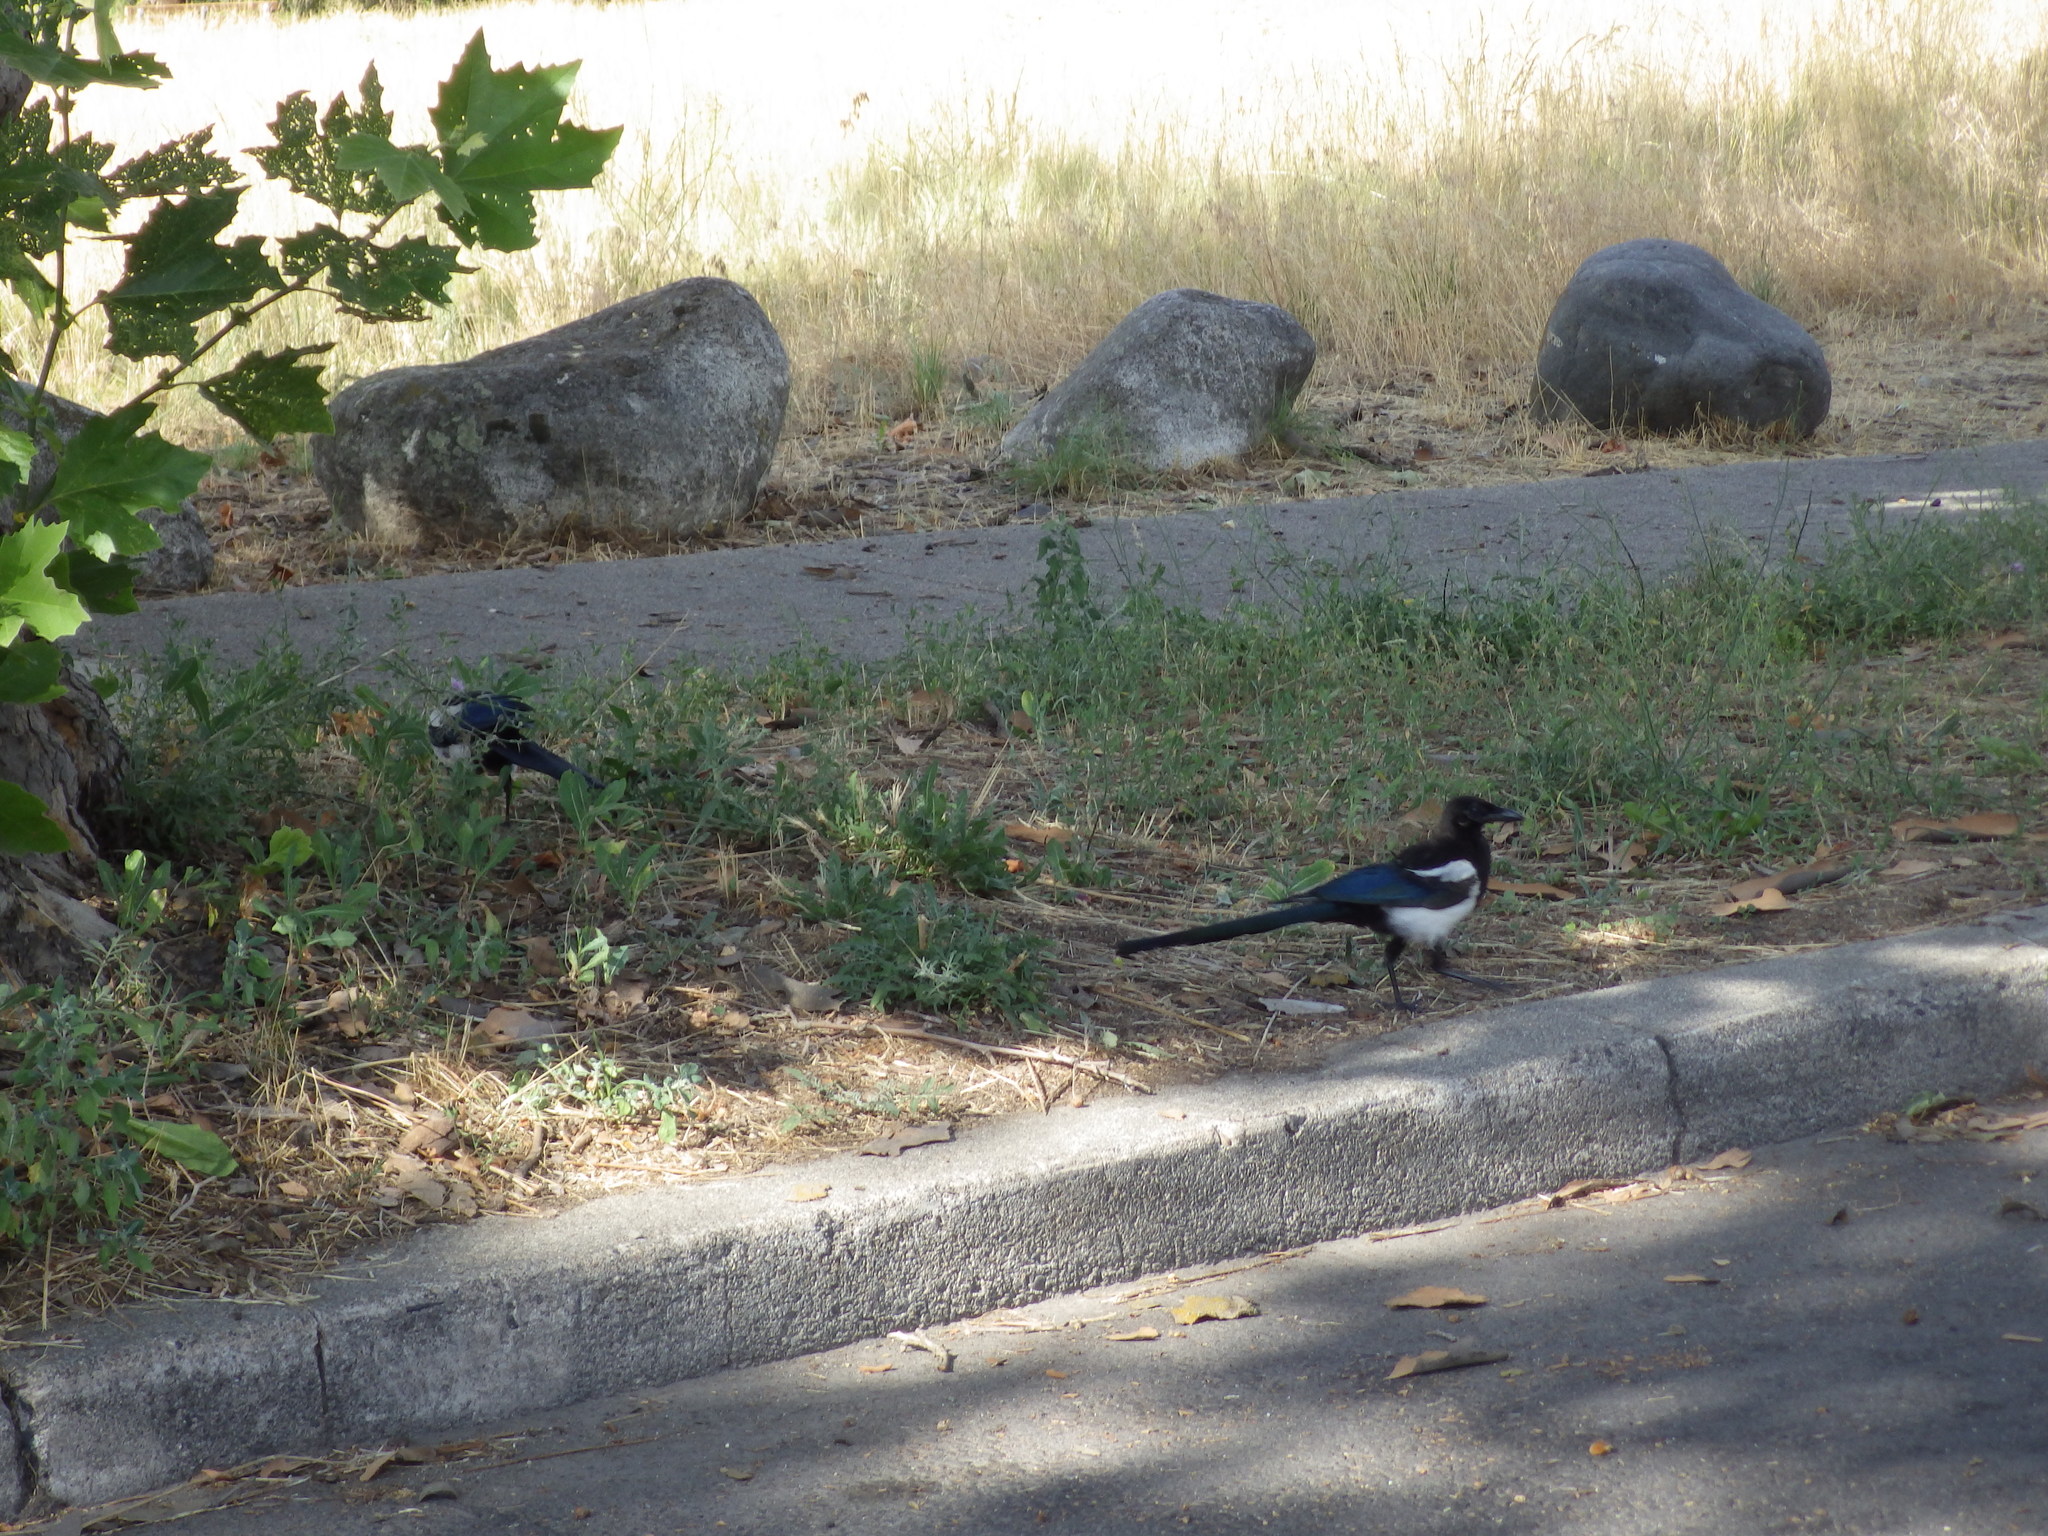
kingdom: Animalia
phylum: Chordata
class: Aves
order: Passeriformes
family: Corvidae
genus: Pica
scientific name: Pica hudsonia
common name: Black-billed magpie
